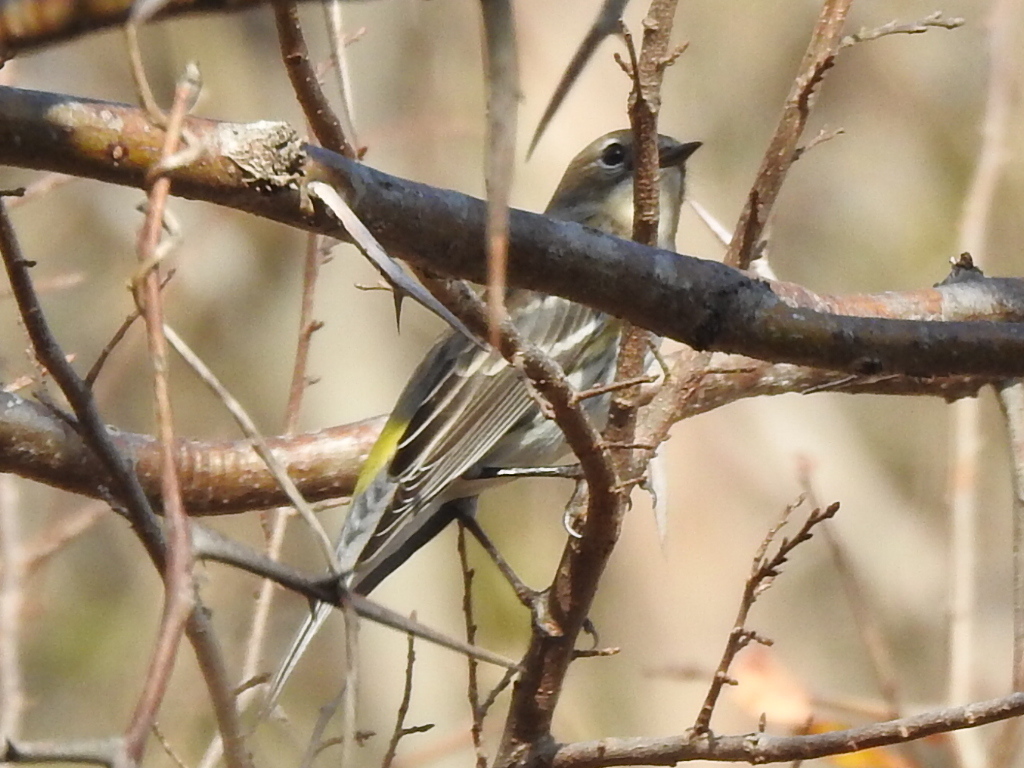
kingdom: Animalia
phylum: Chordata
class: Aves
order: Passeriformes
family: Parulidae
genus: Setophaga
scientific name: Setophaga coronata
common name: Myrtle warbler
